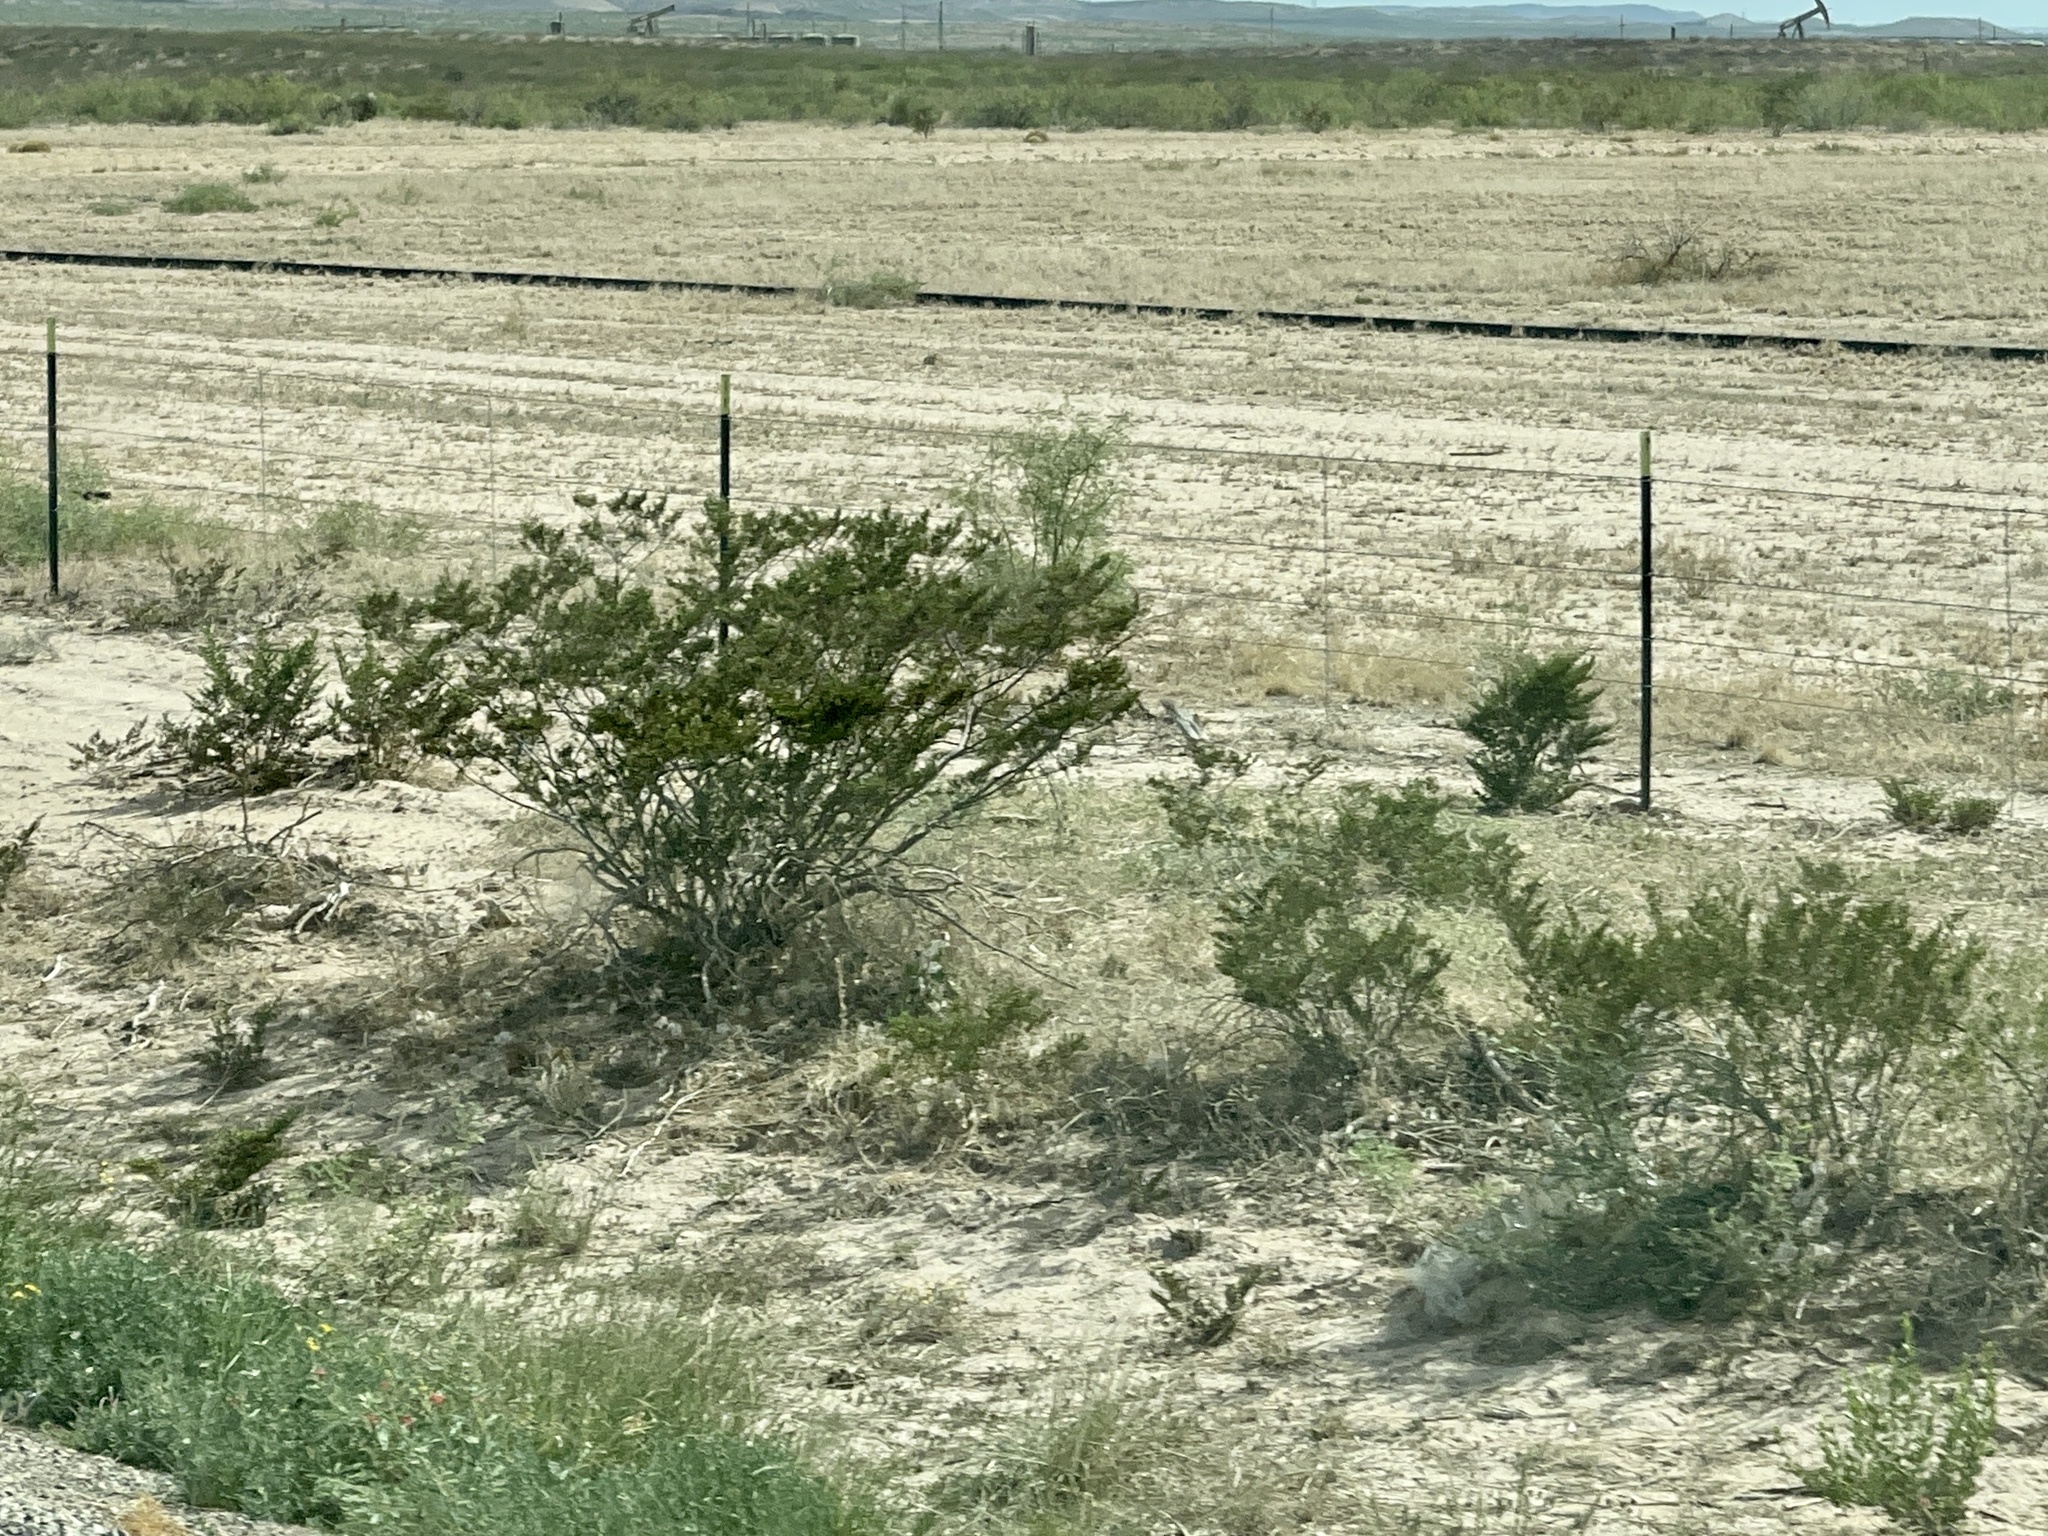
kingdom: Plantae
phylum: Tracheophyta
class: Magnoliopsida
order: Zygophyllales
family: Zygophyllaceae
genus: Larrea
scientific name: Larrea tridentata
